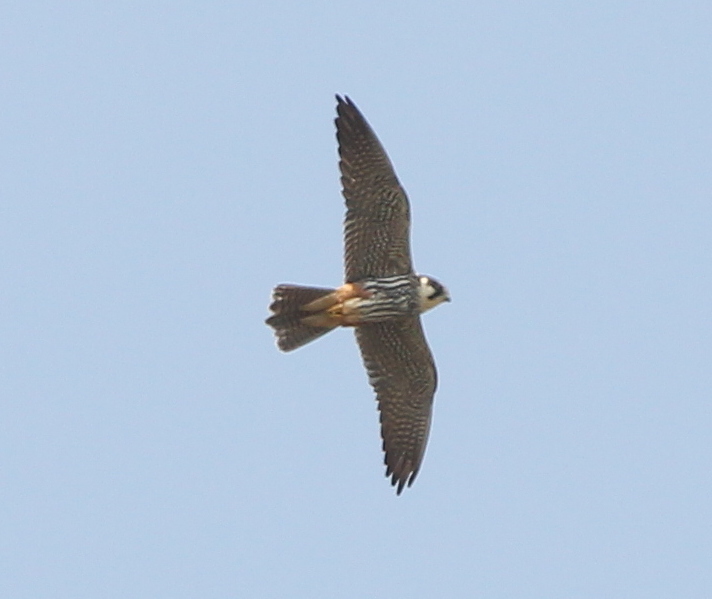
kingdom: Animalia
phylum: Chordata
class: Aves
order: Falconiformes
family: Falconidae
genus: Falco
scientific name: Falco subbuteo
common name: Eurasian hobby
